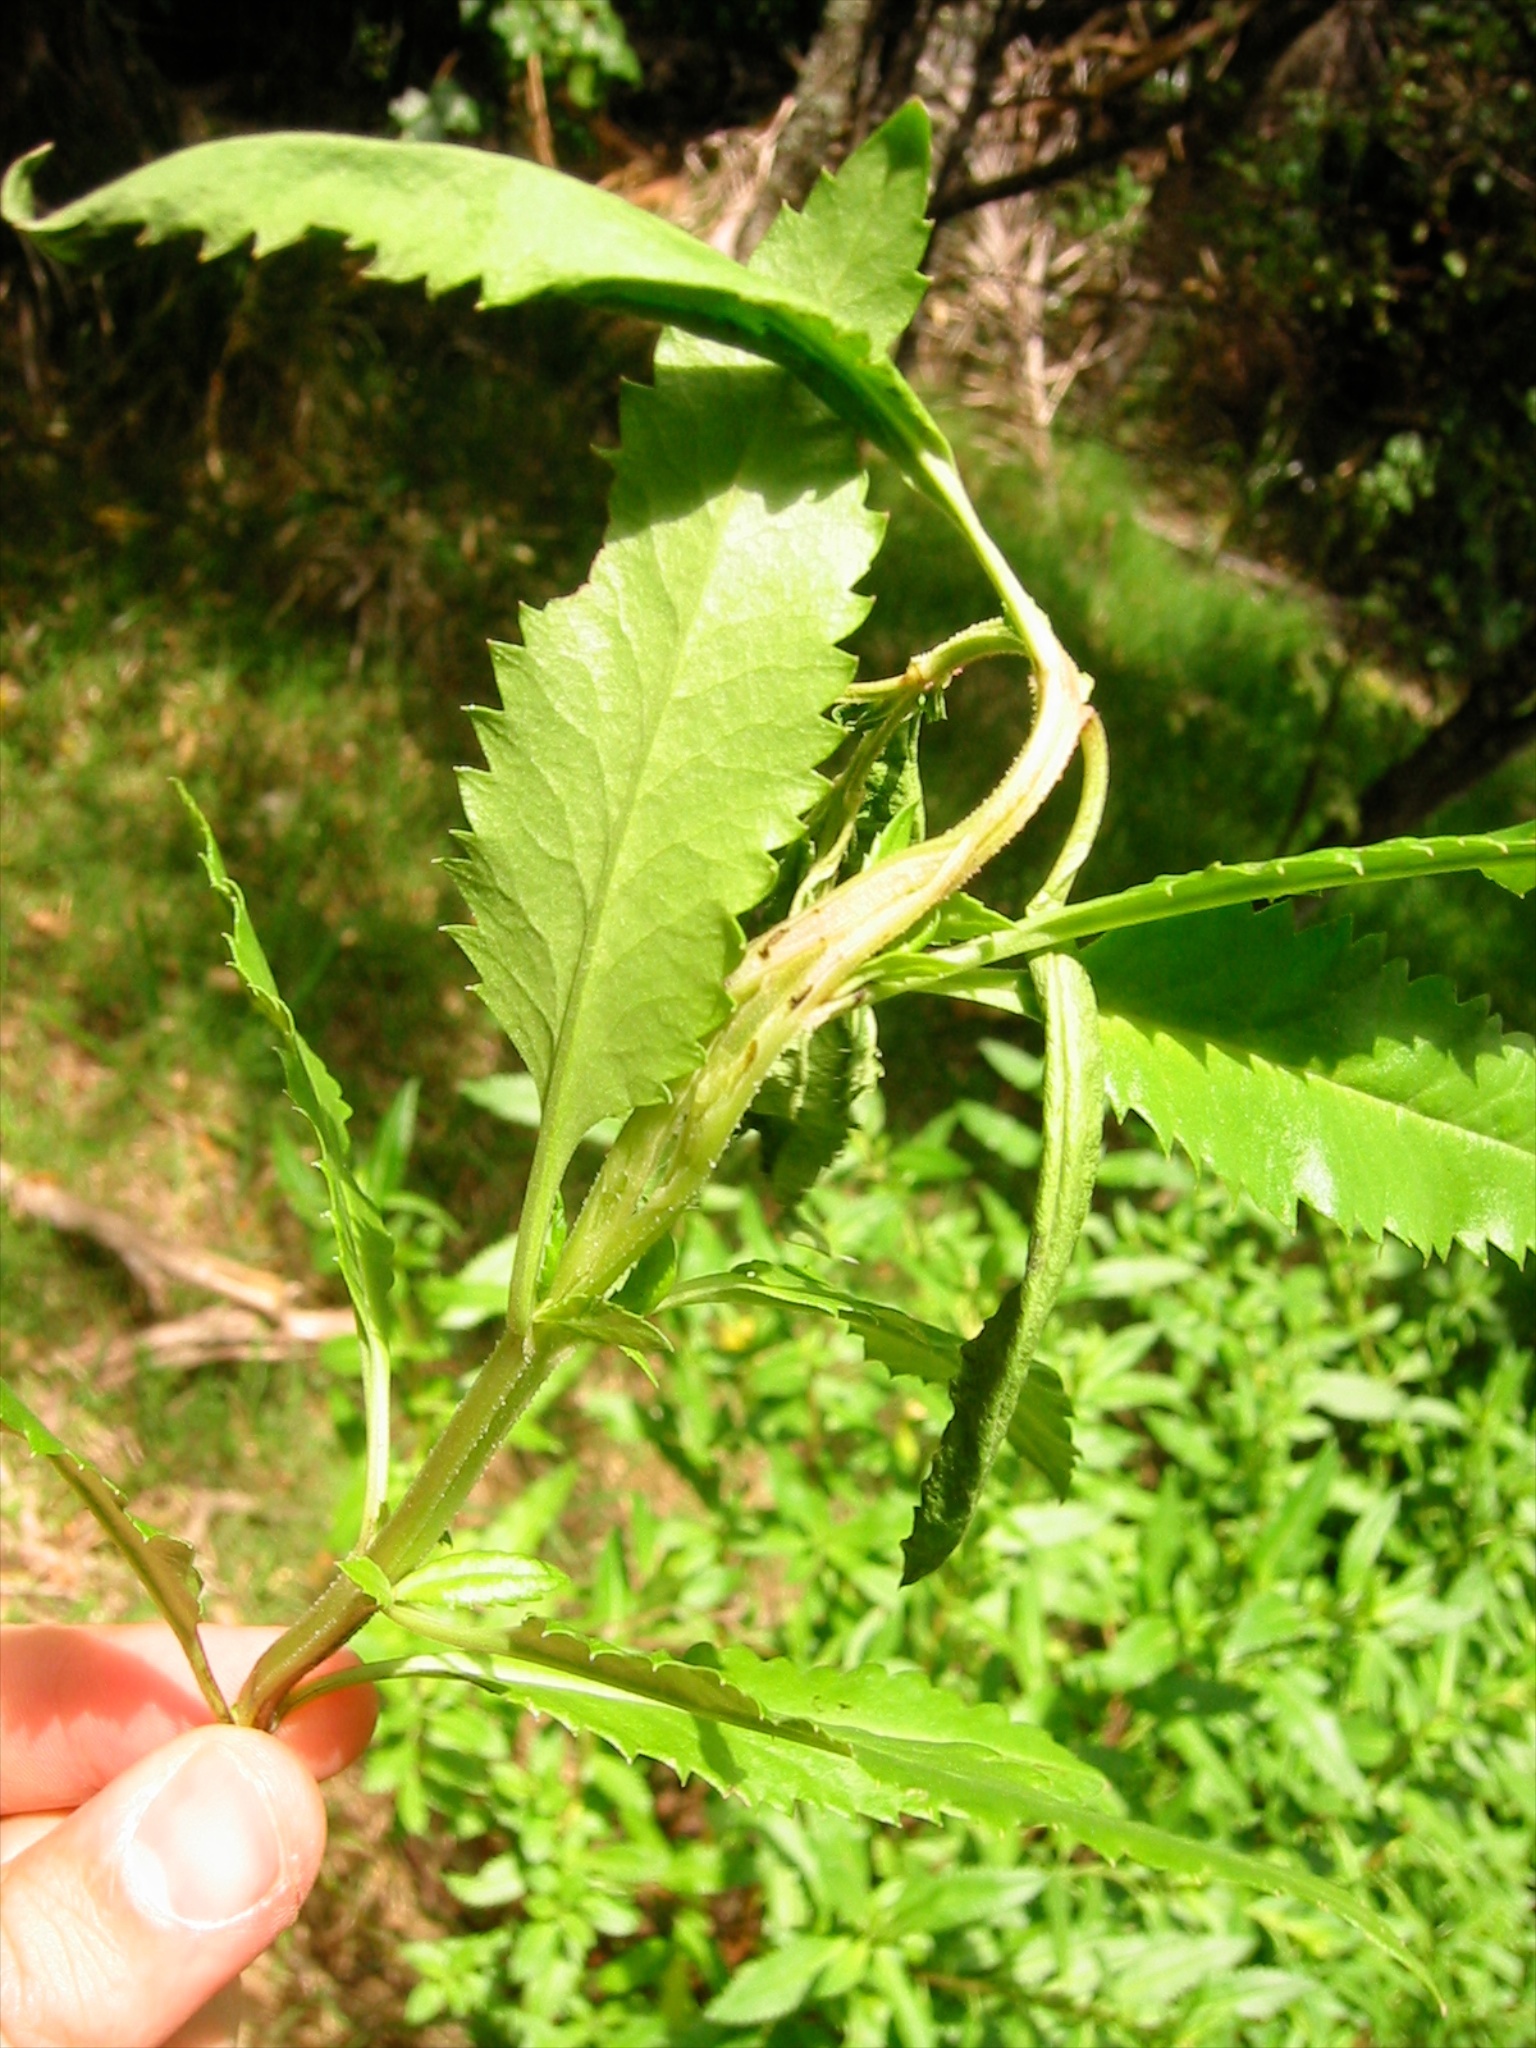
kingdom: Plantae
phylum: Tracheophyta
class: Magnoliopsida
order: Saxifragales
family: Haloragaceae
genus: Haloragis
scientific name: Haloragis erecta
